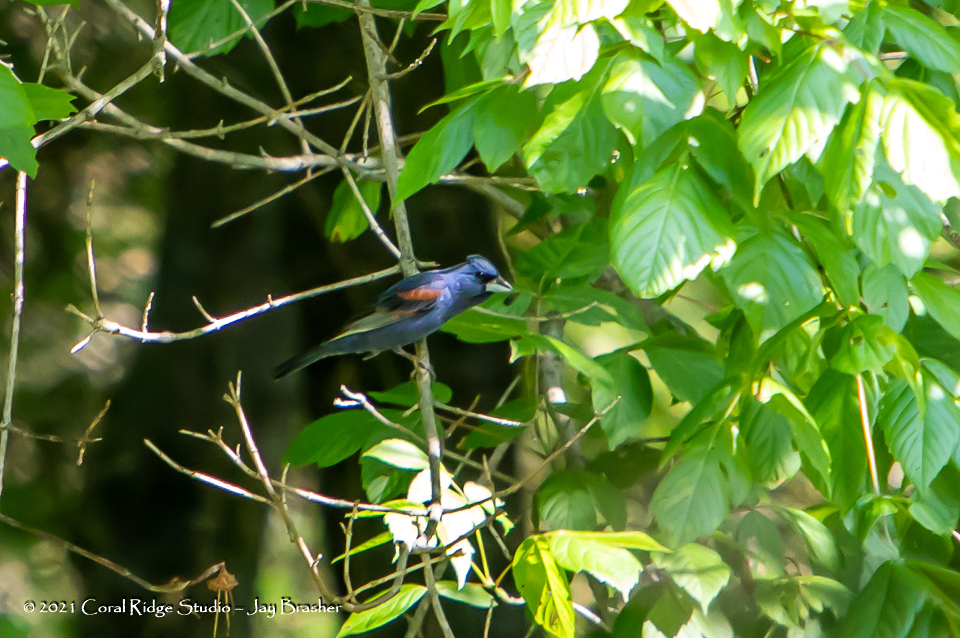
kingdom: Animalia
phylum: Chordata
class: Aves
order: Passeriformes
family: Cardinalidae
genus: Passerina
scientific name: Passerina caerulea
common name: Blue grosbeak
